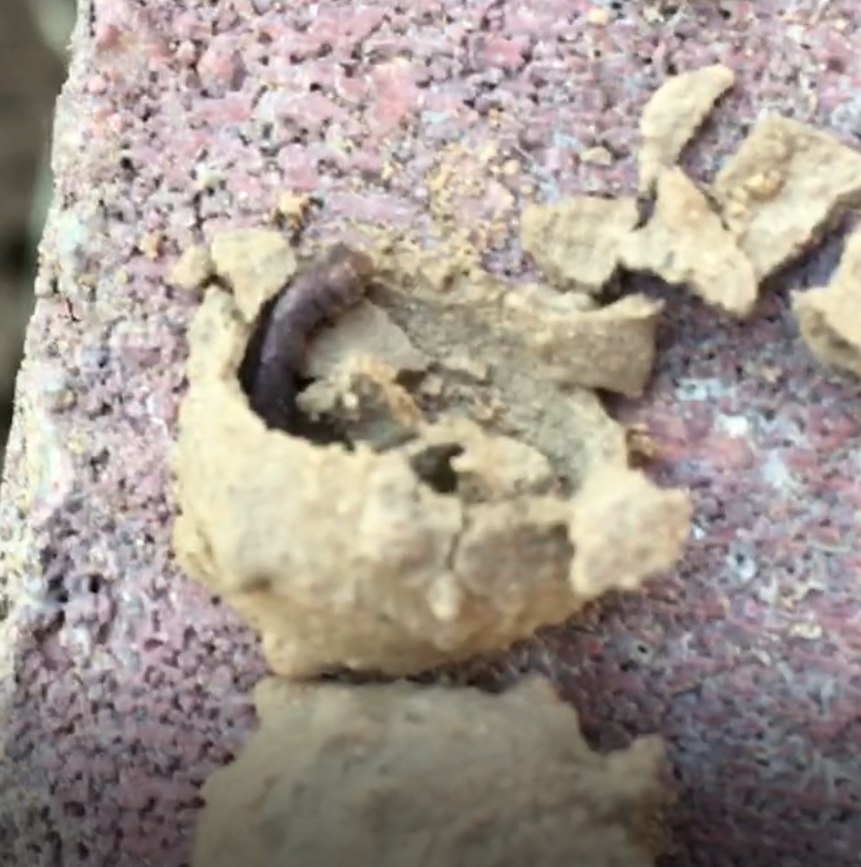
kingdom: Animalia
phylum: Arthropoda
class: Insecta
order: Hymenoptera
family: Vespidae
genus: Eumenes
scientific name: Eumenes
